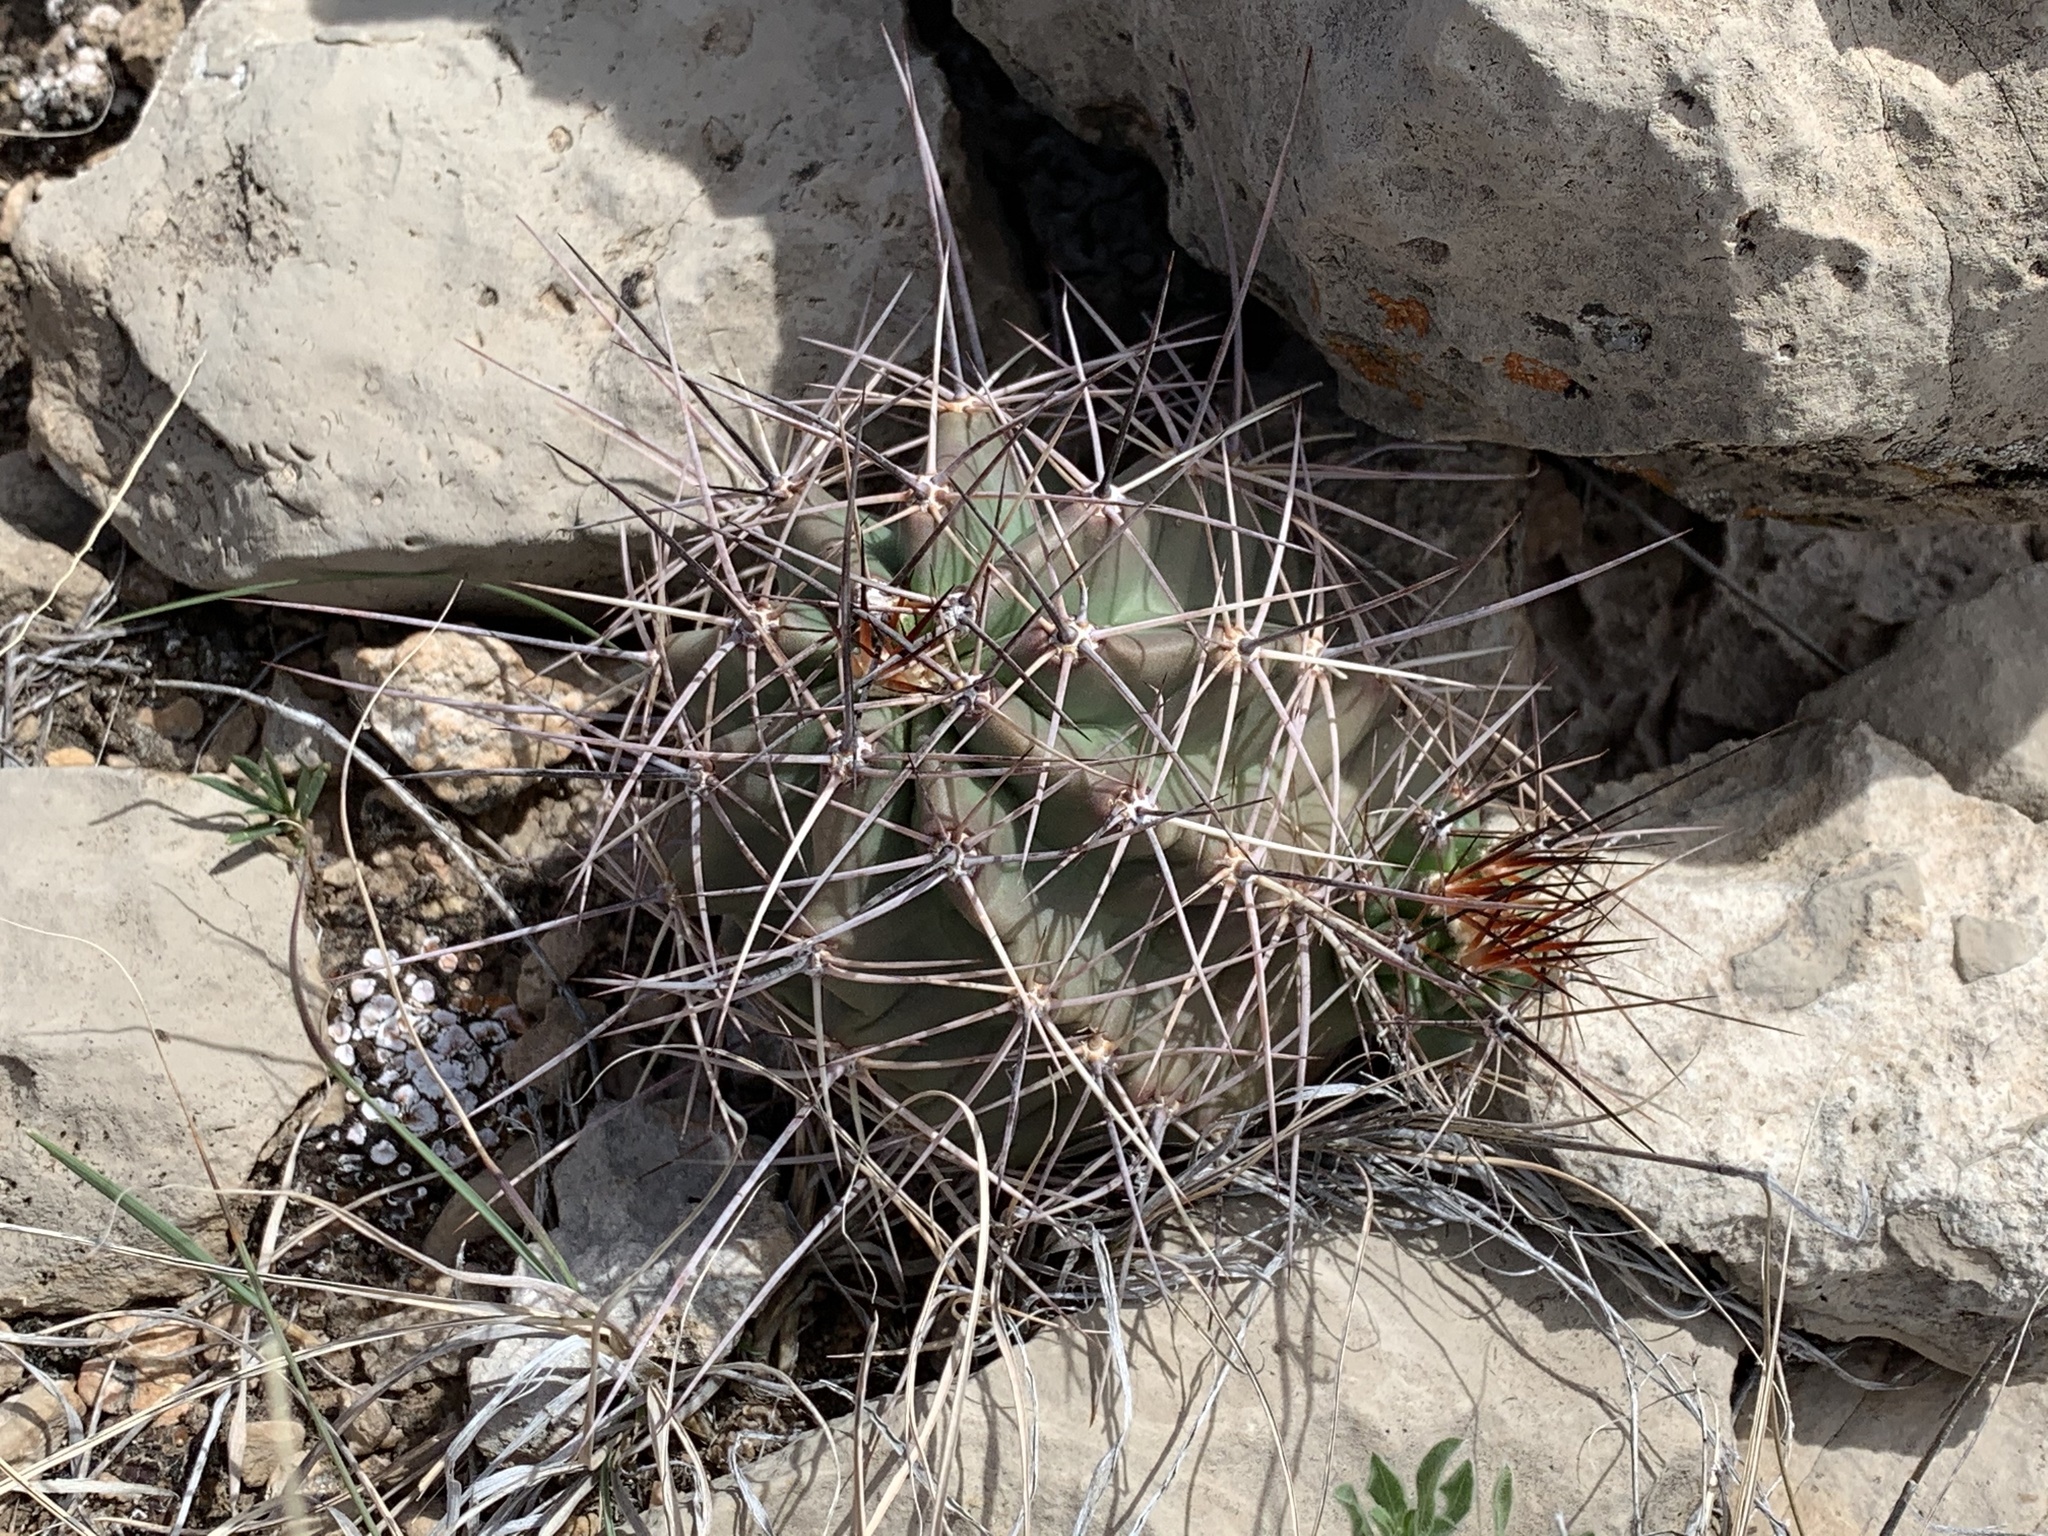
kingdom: Plantae
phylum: Tracheophyta
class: Magnoliopsida
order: Caryophyllales
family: Cactaceae
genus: Echinocereus
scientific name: Echinocereus coccineus
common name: Scarlet hedgehog cactus
